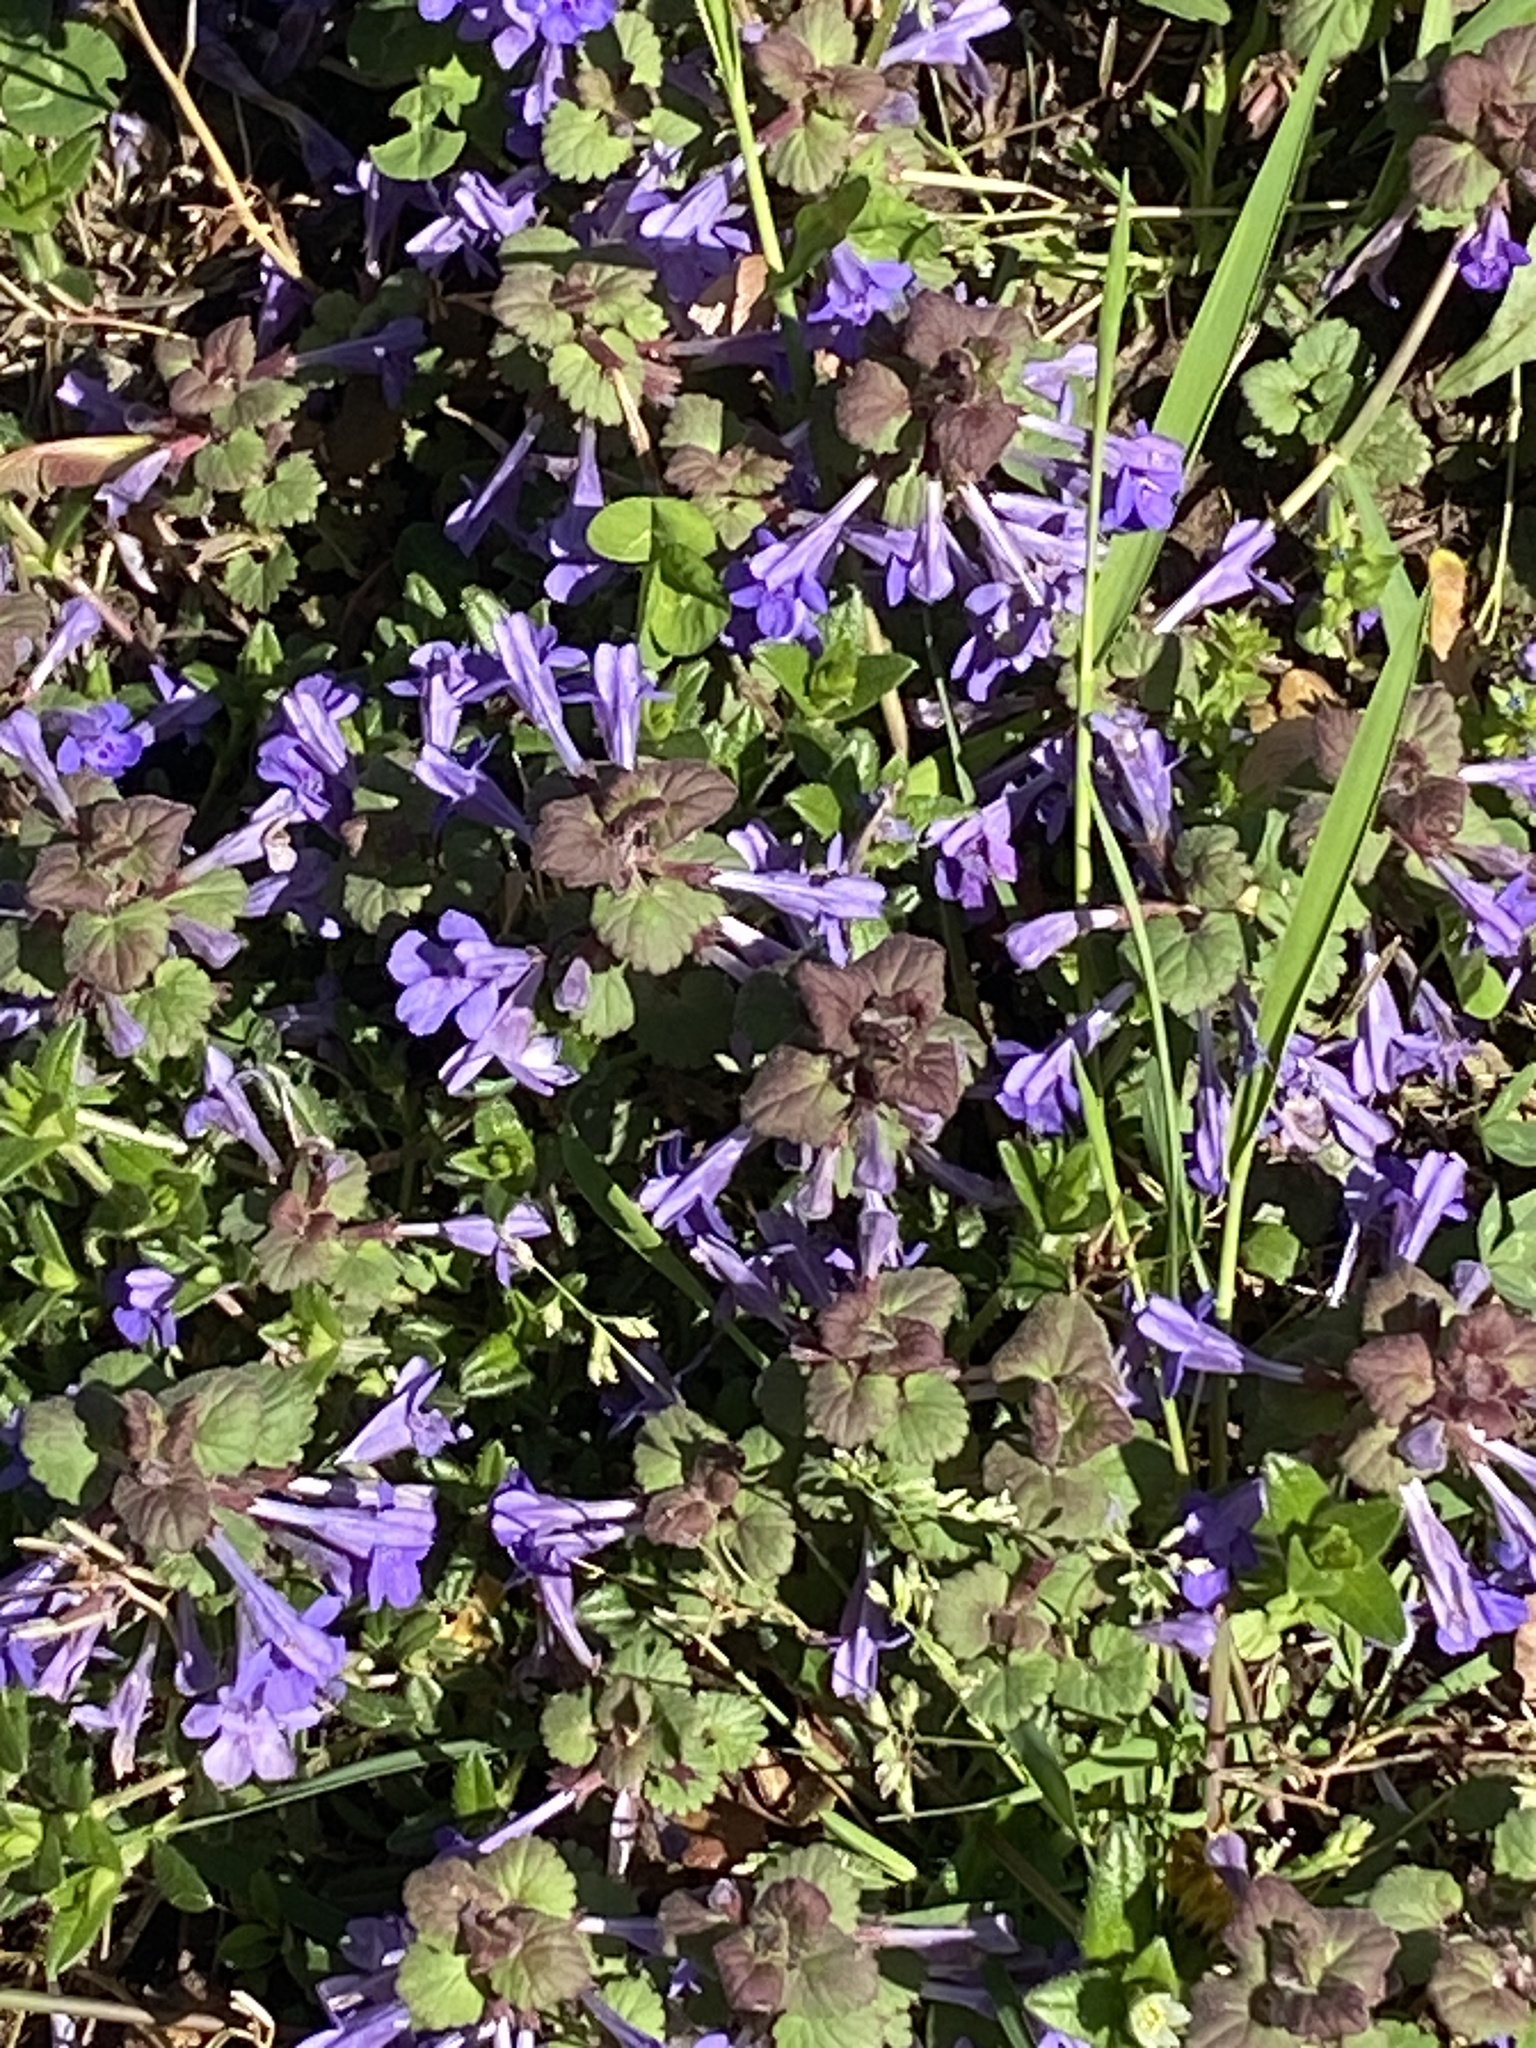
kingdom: Plantae
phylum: Tracheophyta
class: Magnoliopsida
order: Lamiales
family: Lamiaceae
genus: Glechoma
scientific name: Glechoma hederacea
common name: Ground ivy
